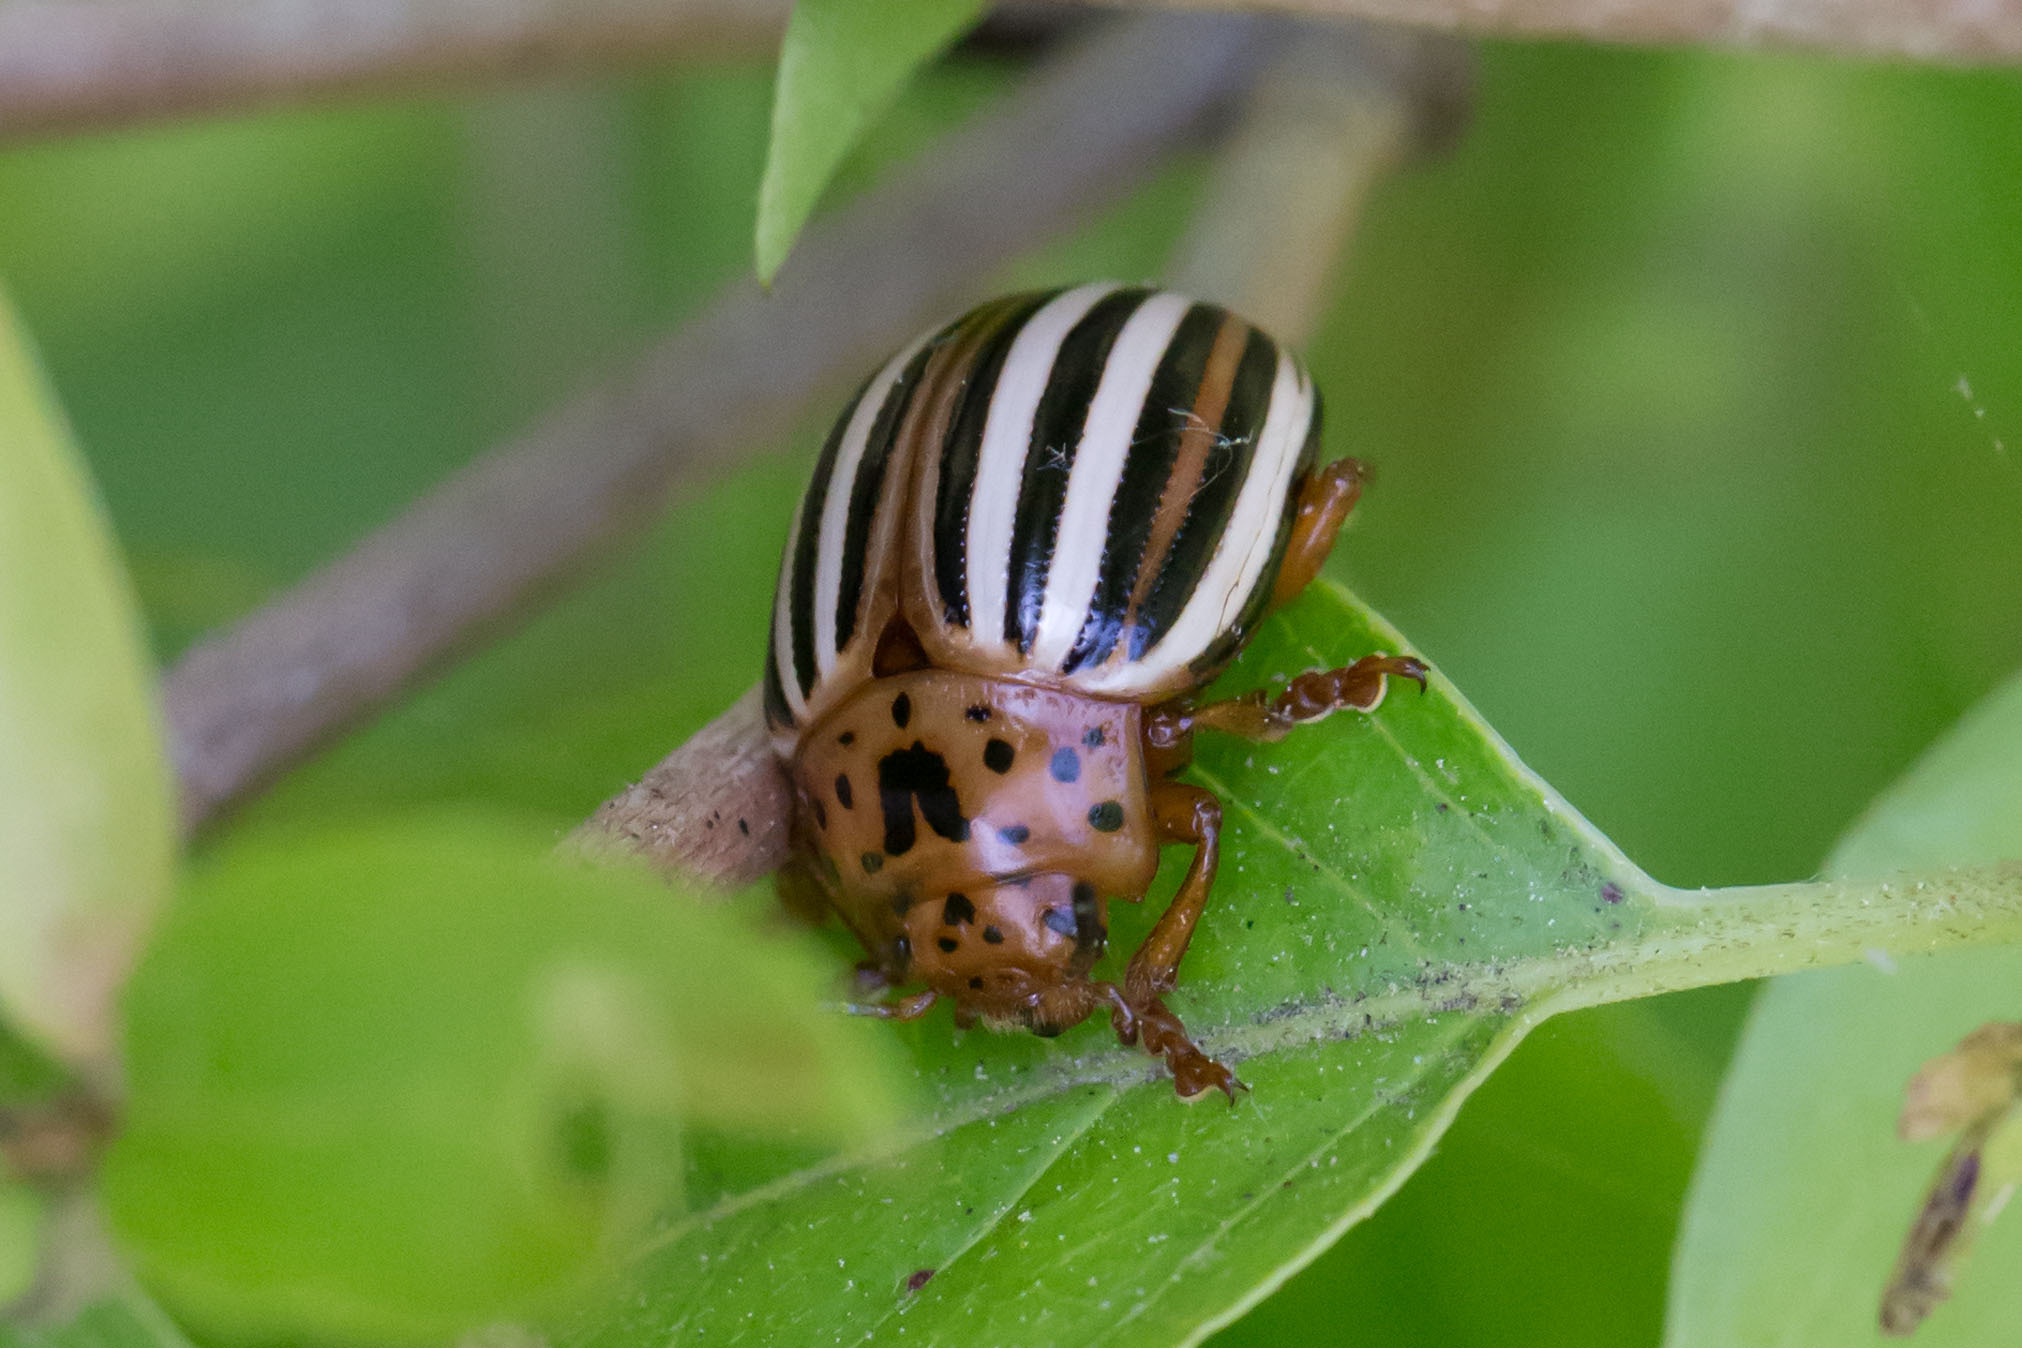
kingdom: Animalia
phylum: Arthropoda
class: Insecta
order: Coleoptera
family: Chrysomelidae
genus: Leptinotarsa
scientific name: Leptinotarsa juncta
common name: False potato beetle
